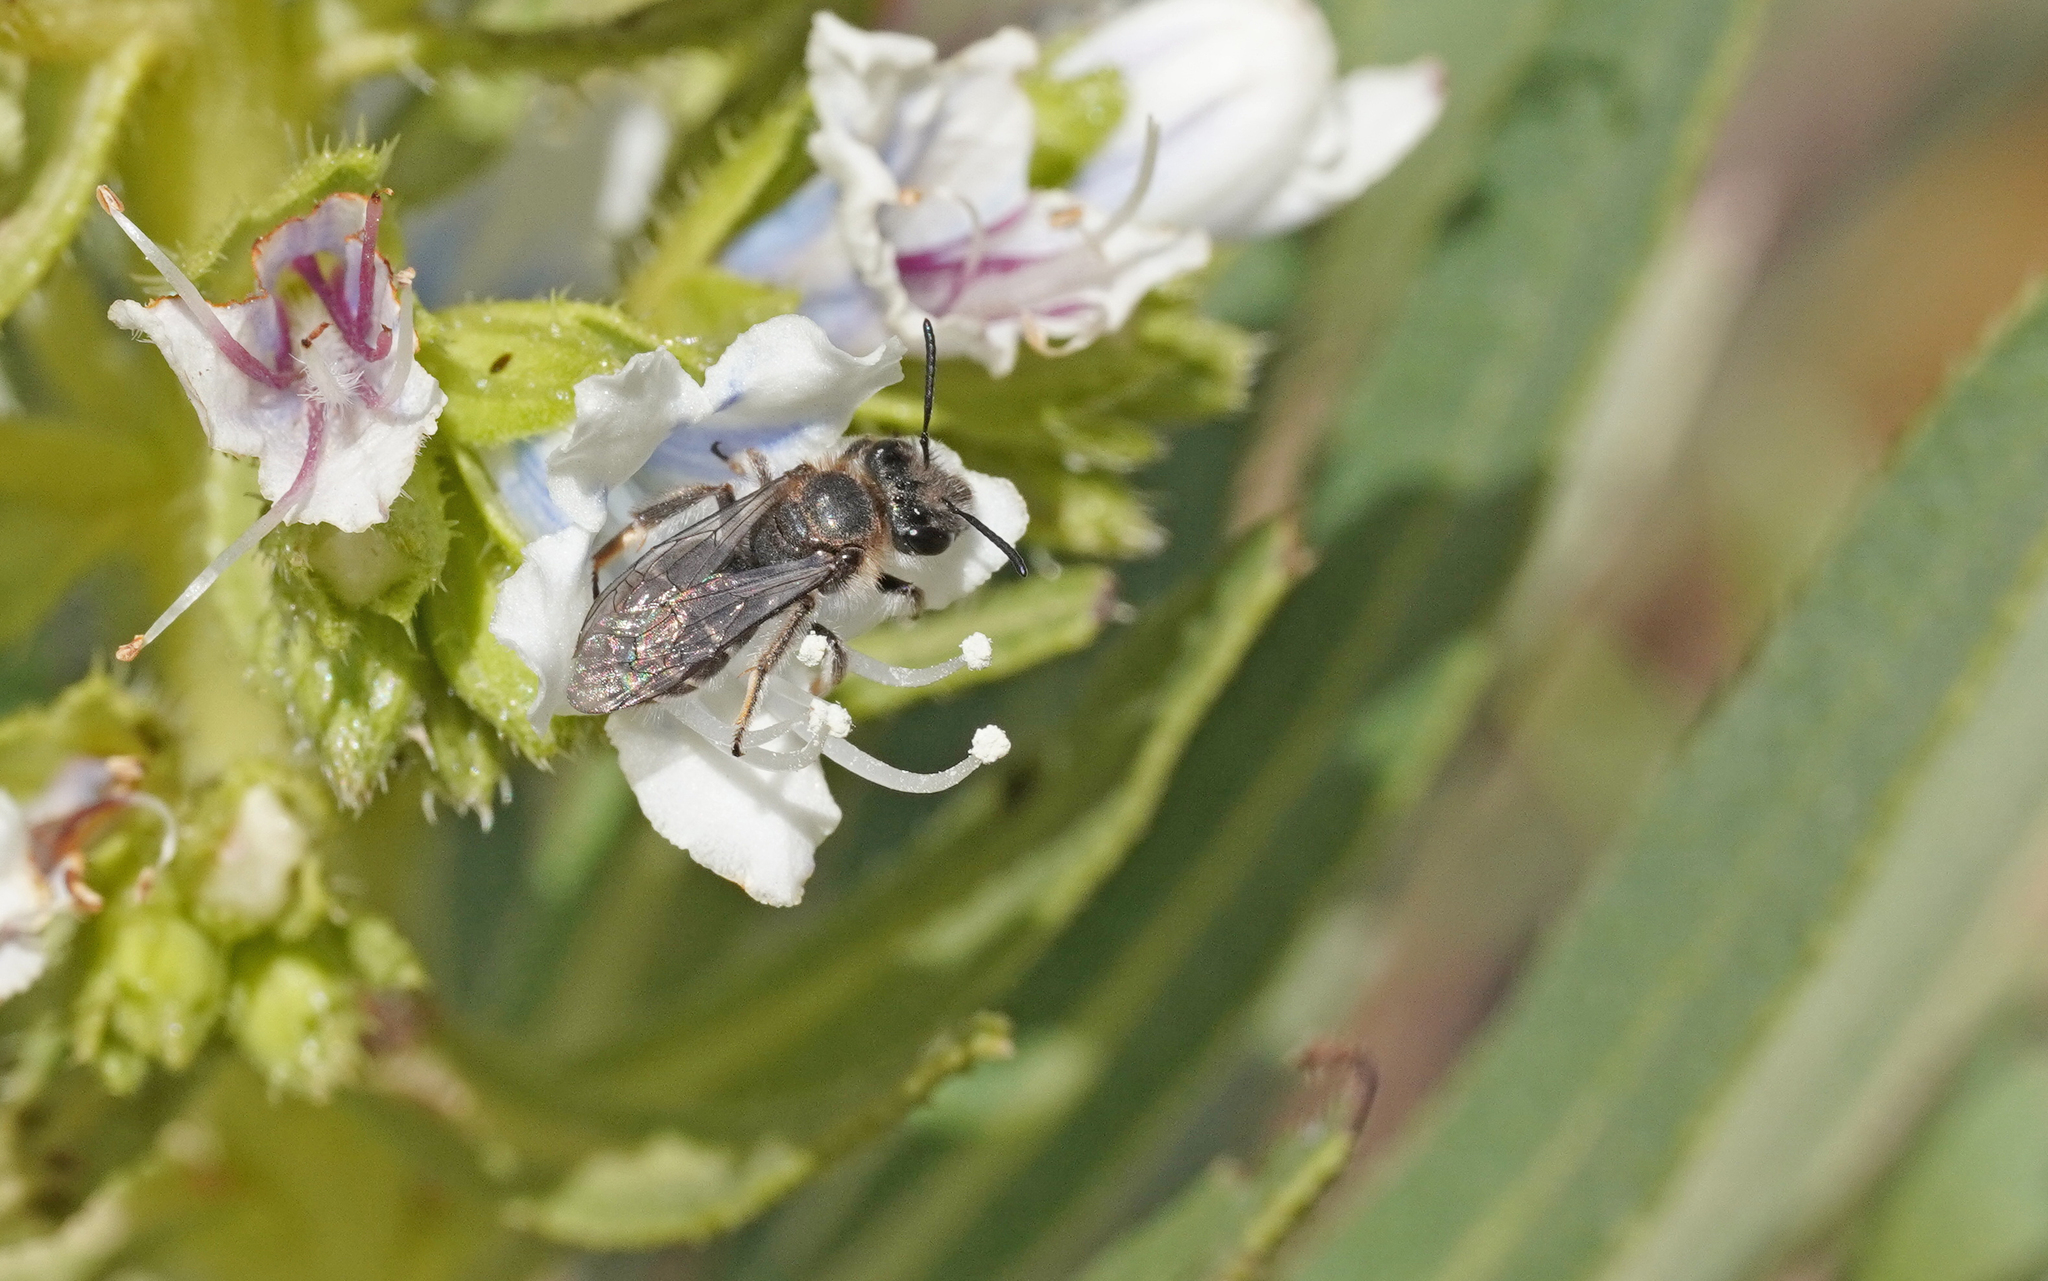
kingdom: Animalia
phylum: Arthropoda
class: Insecta
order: Hymenoptera
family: Andrenidae
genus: Andrena
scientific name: Andrena chalcogastra
